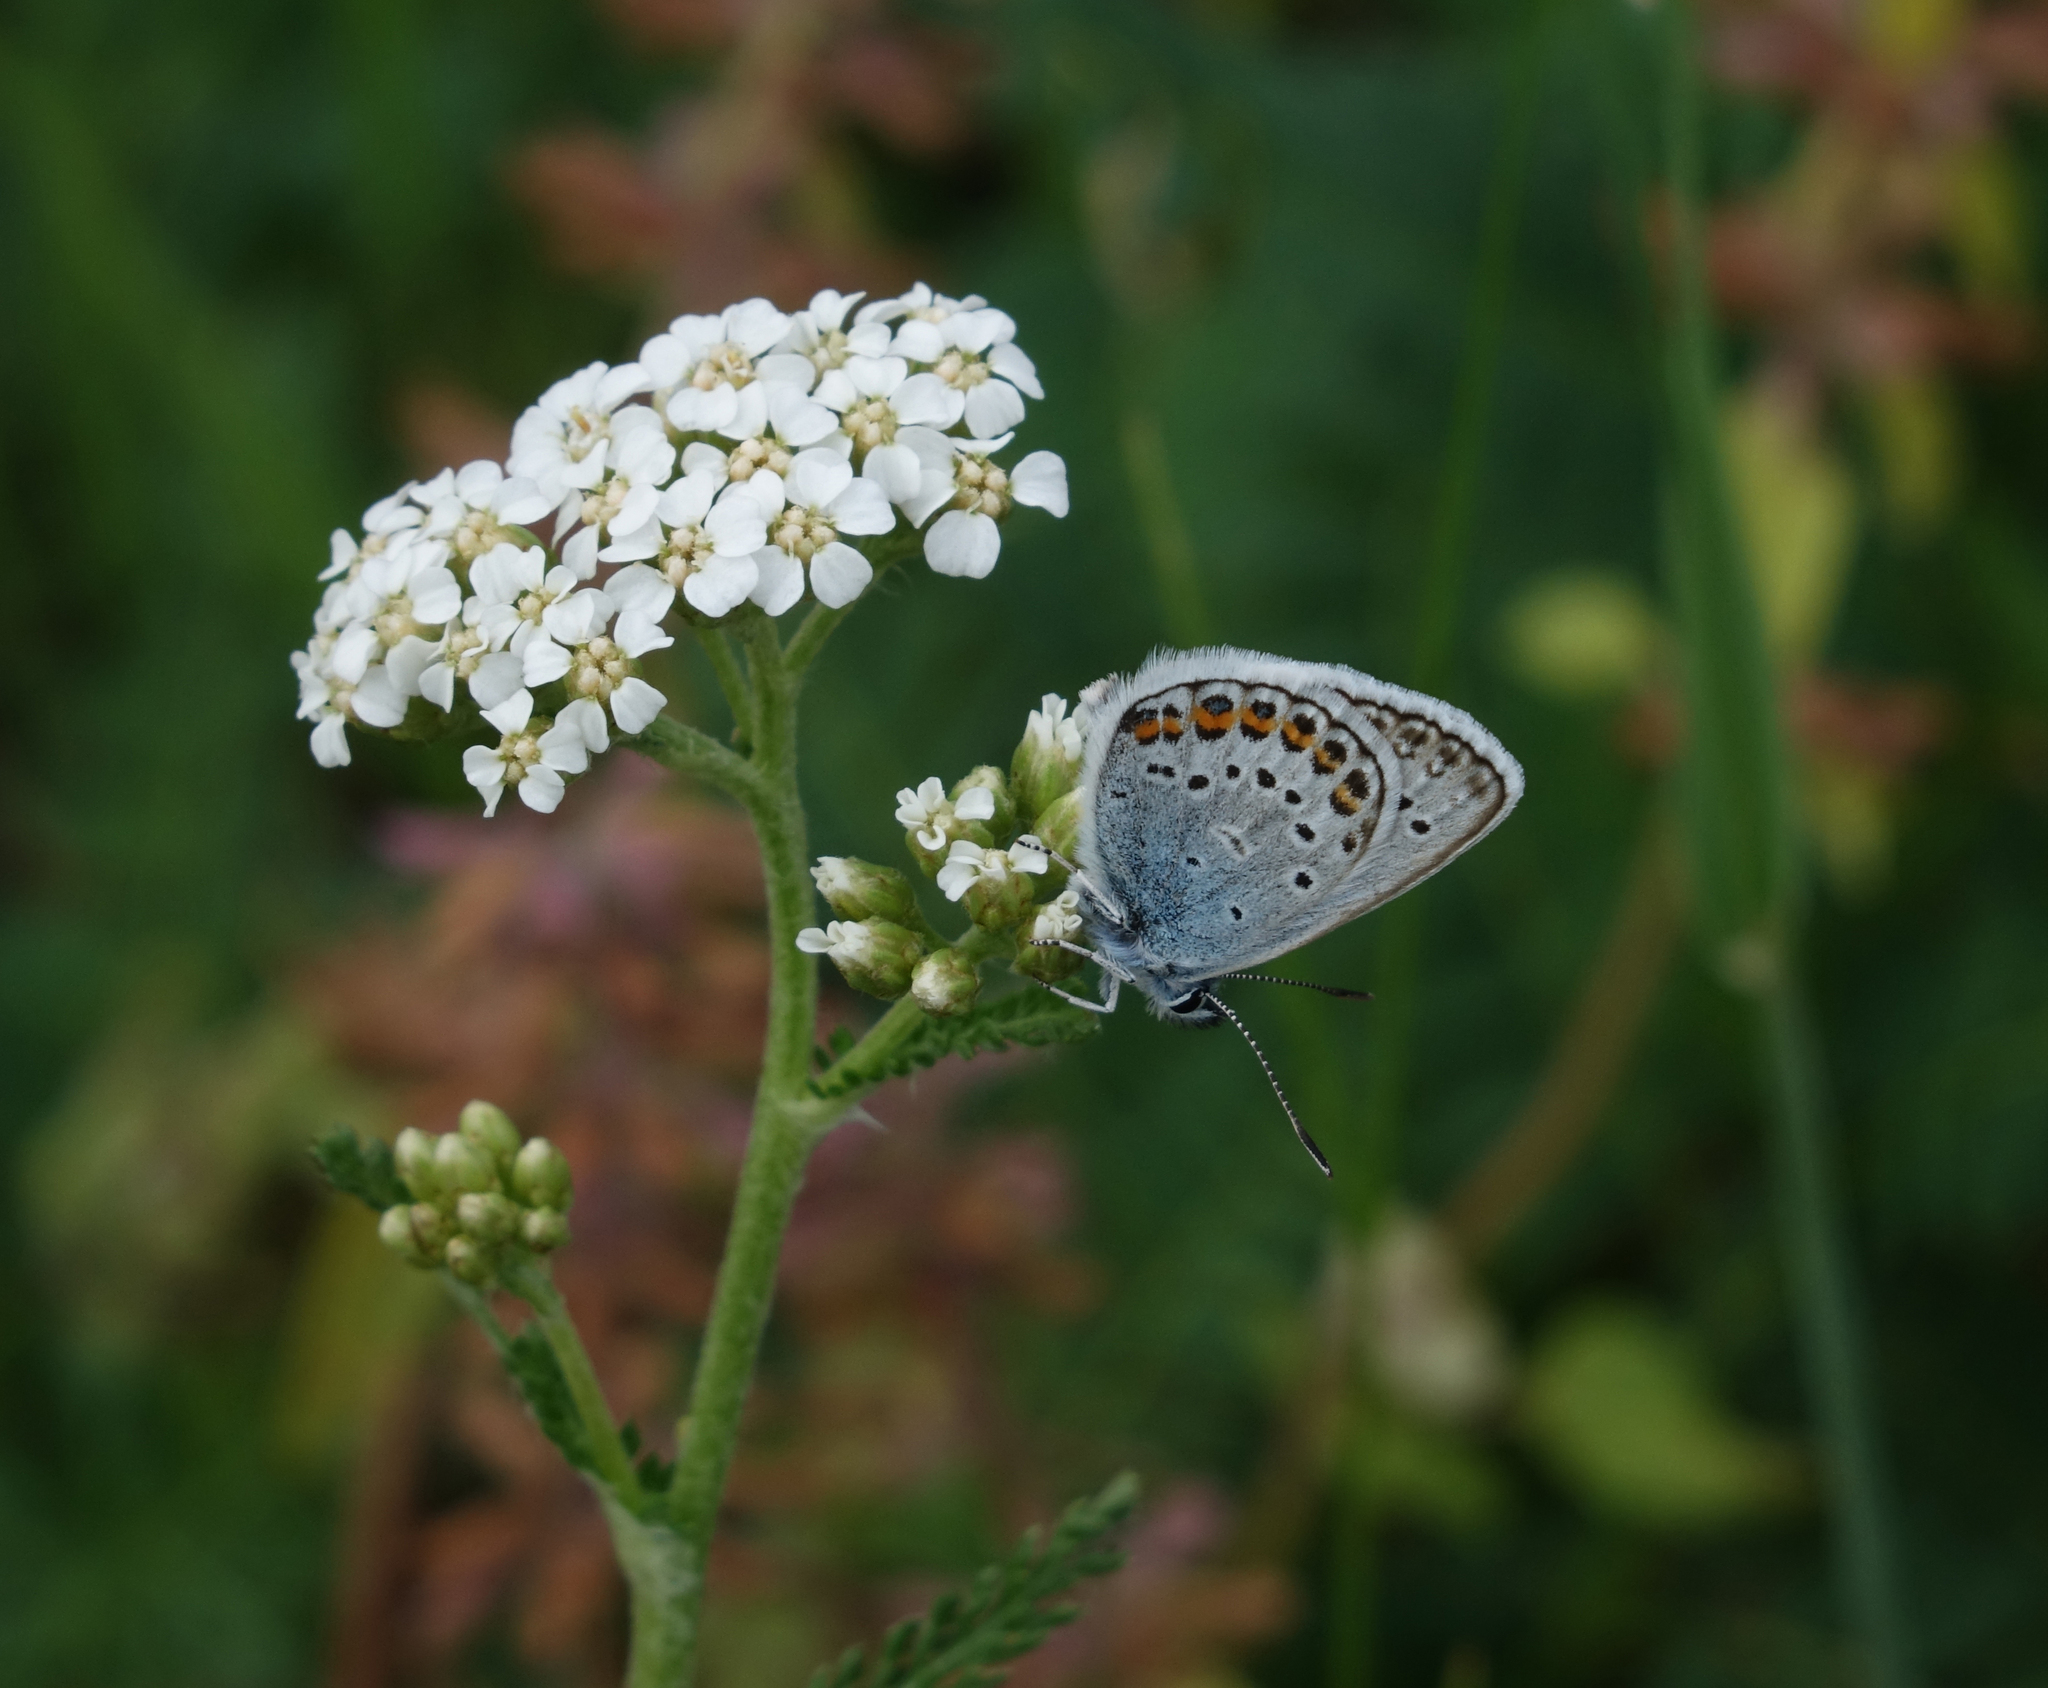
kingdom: Plantae
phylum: Tracheophyta
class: Magnoliopsida
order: Asterales
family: Asteraceae
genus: Achillea
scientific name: Achillea millefolium
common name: Yarrow
